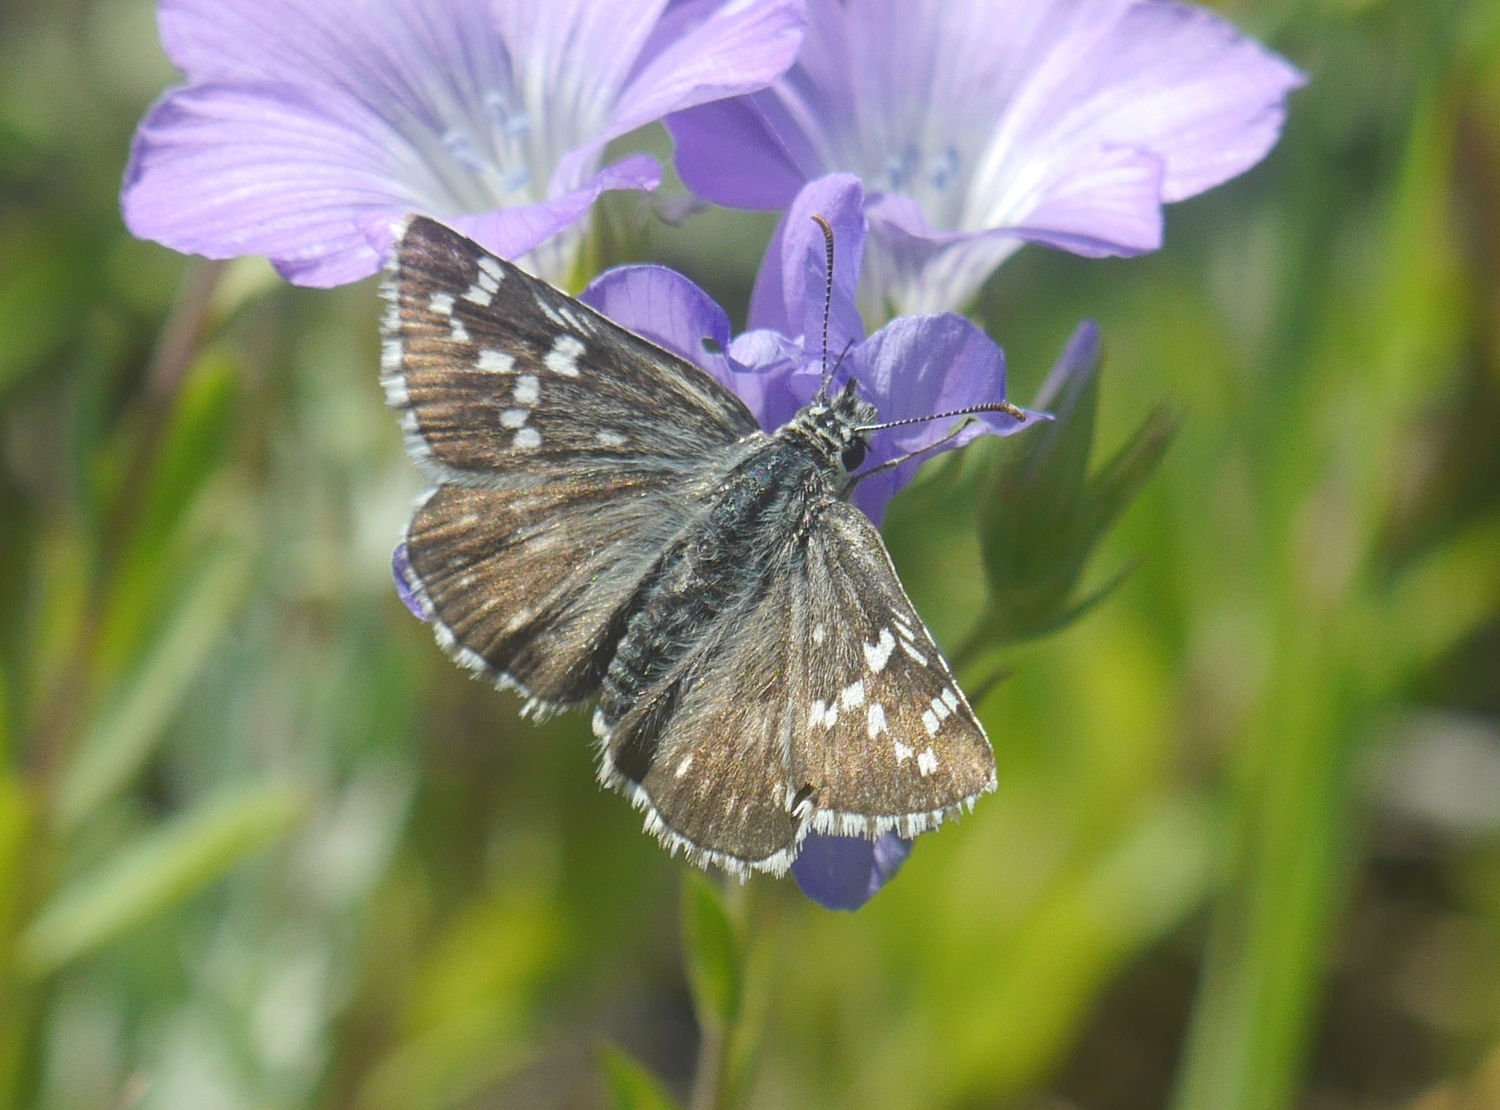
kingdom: Animalia
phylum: Arthropoda
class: Insecta
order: Lepidoptera
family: Hesperiidae
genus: Pyrgus
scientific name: Pyrgus fritillarius
